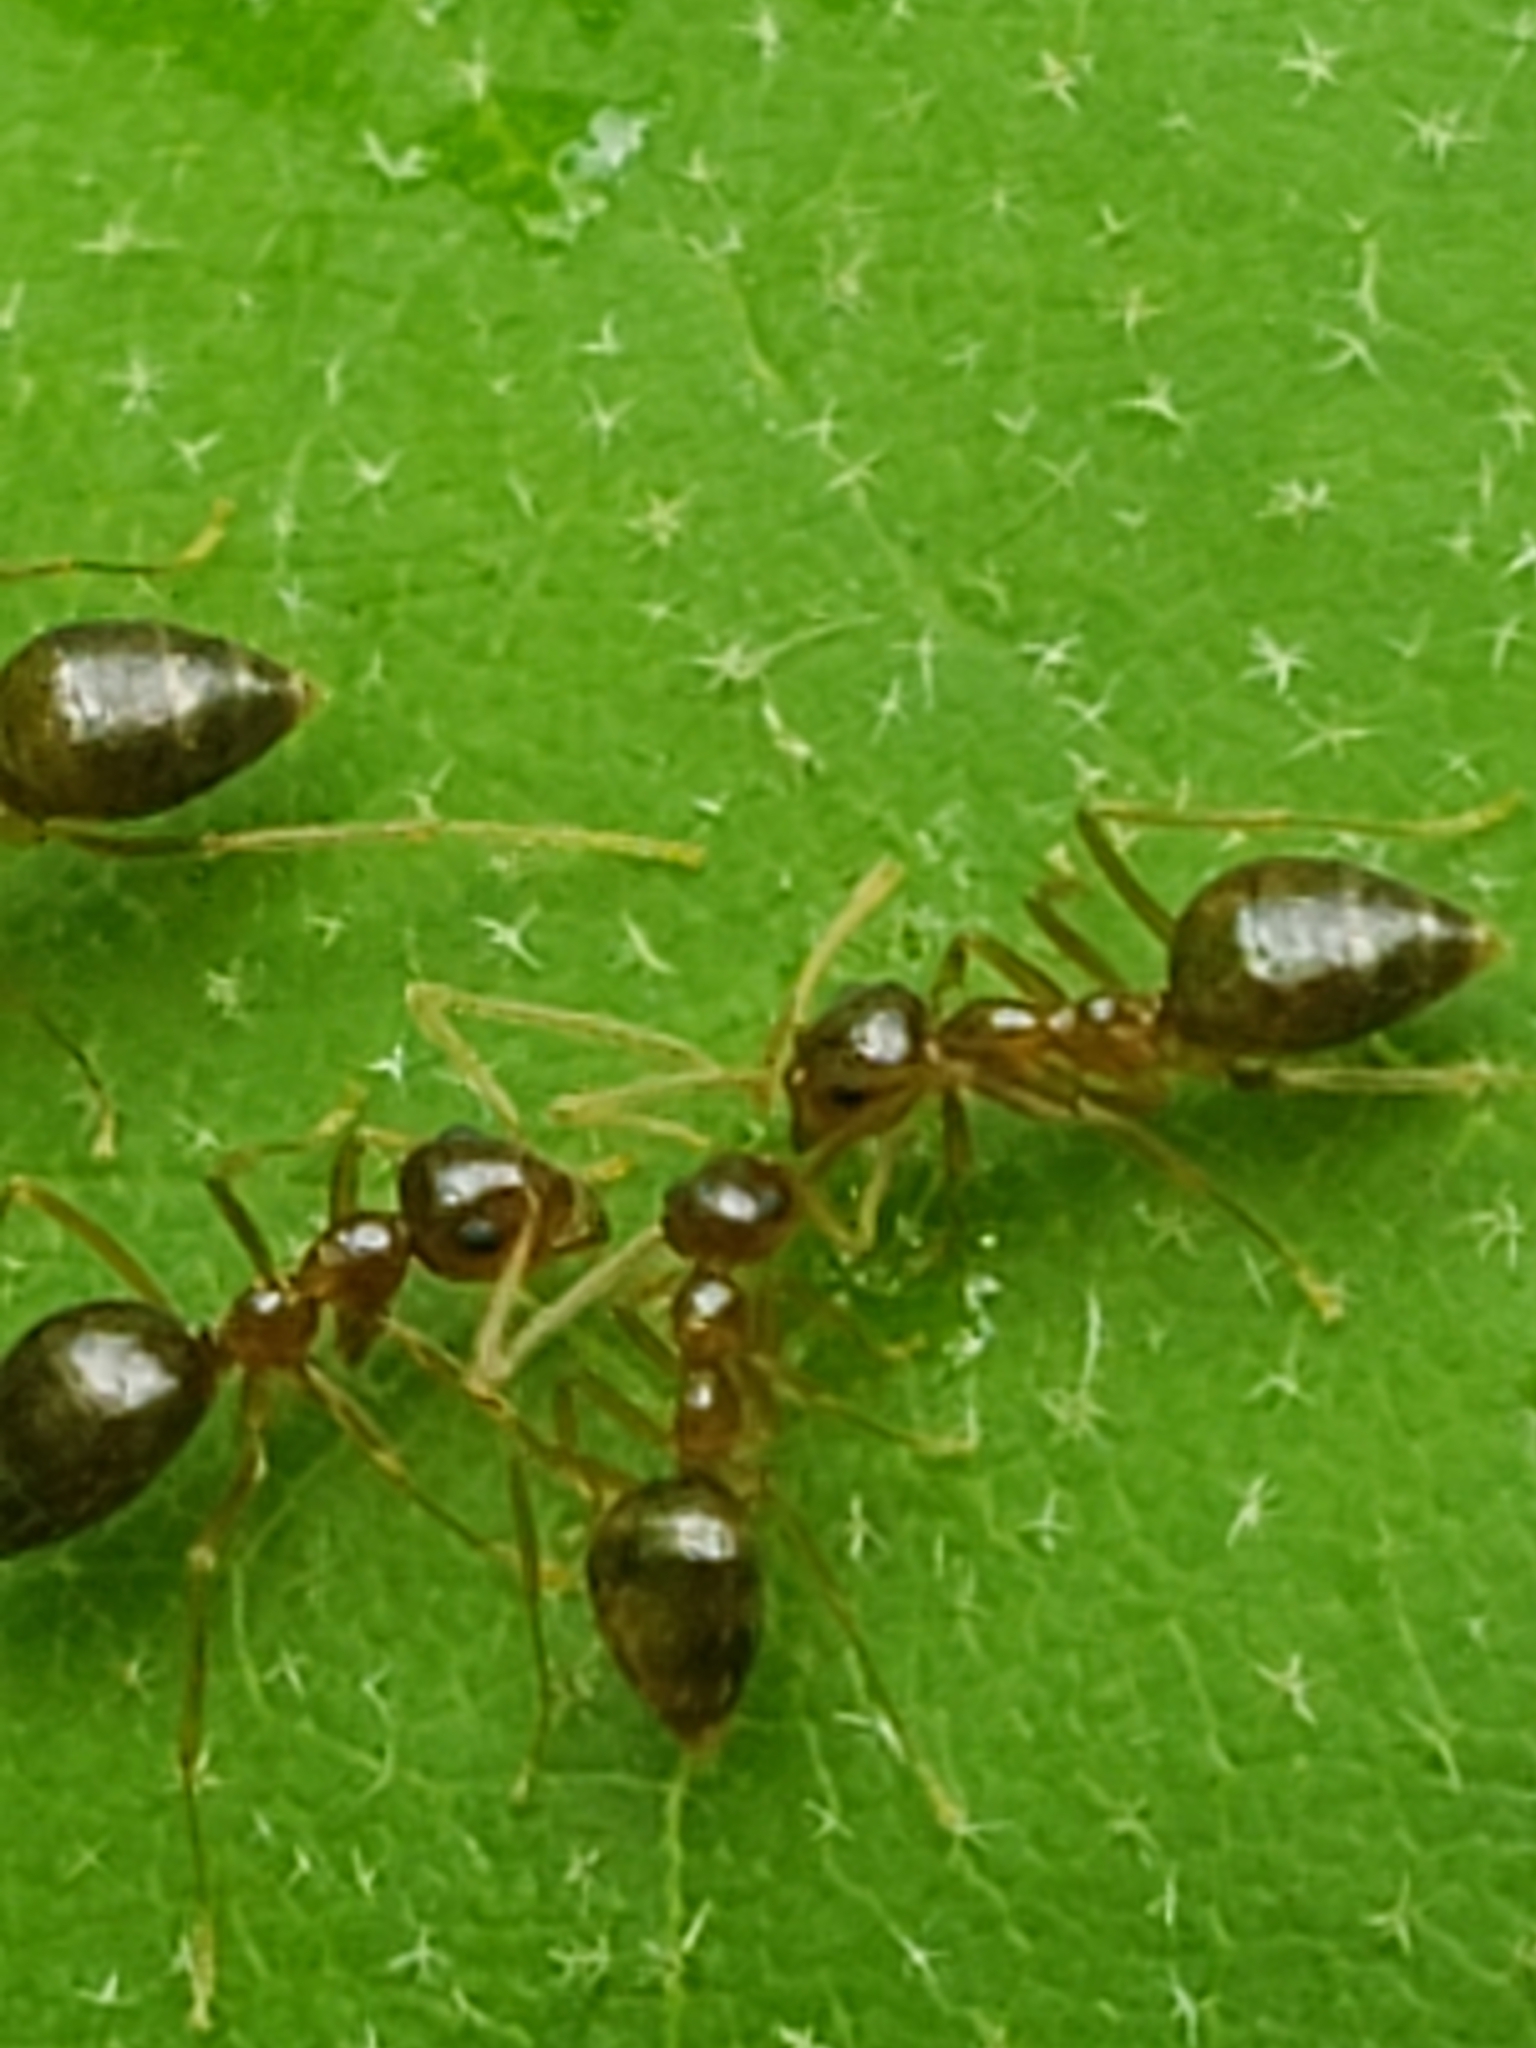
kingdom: Animalia
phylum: Arthropoda
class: Insecta
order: Hymenoptera
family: Formicidae
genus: Prenolepis
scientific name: Prenolepis imparis
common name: Small honey ant
